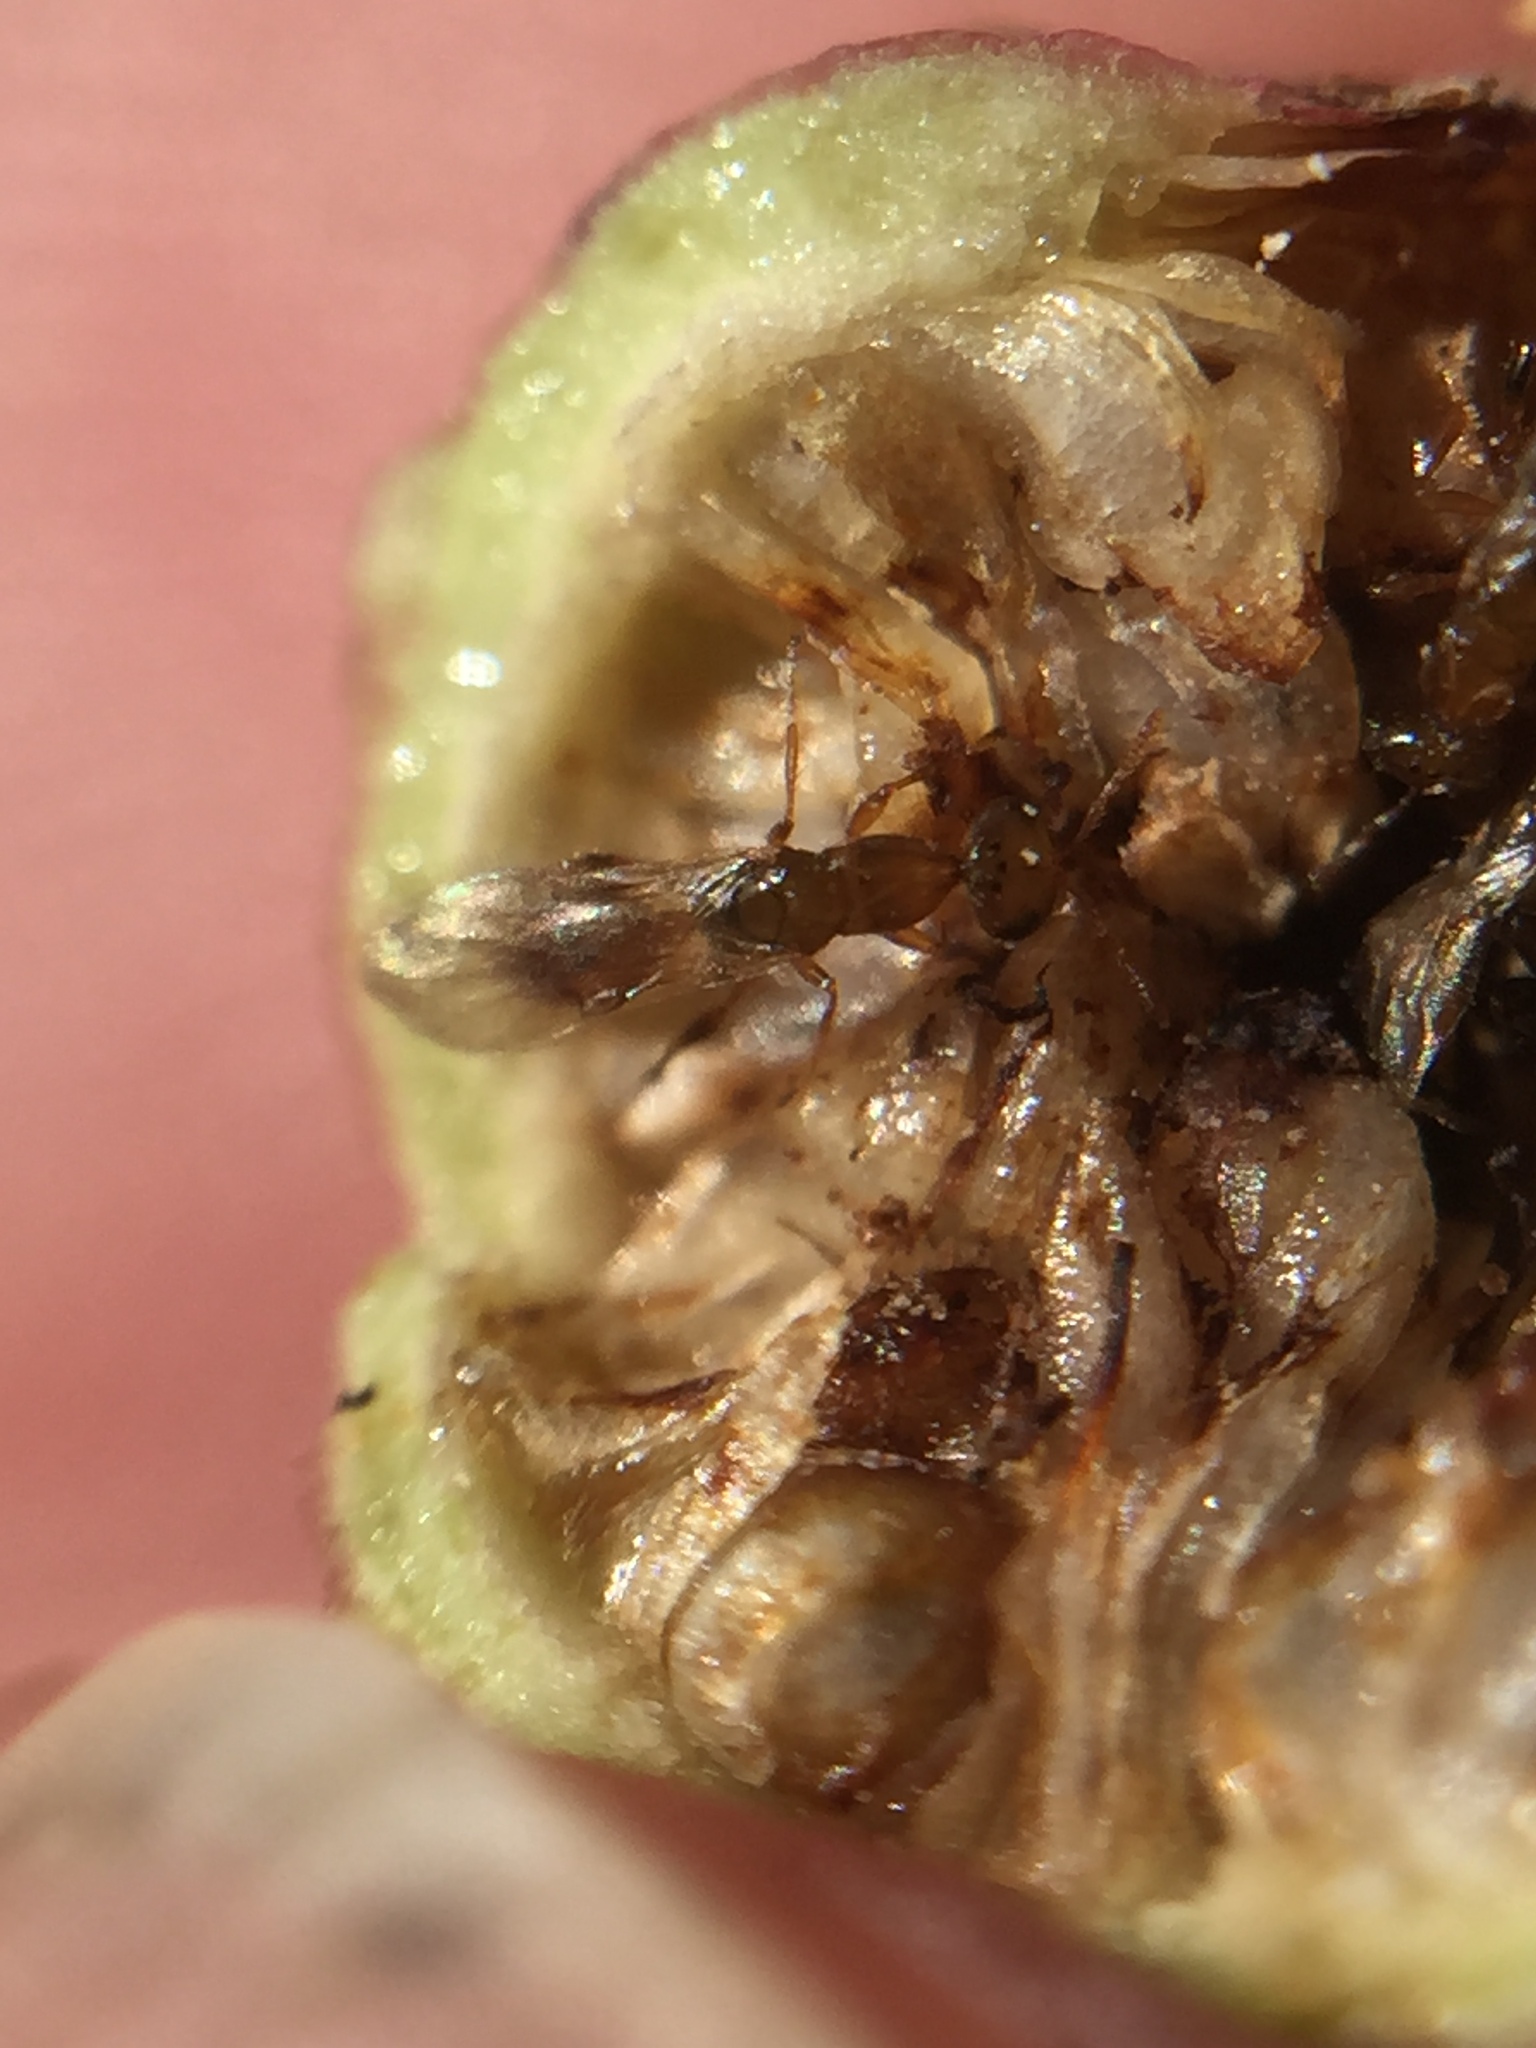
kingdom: Animalia
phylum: Arthropoda
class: Insecta
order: Hymenoptera
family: Agaonidae
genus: Odontofroggatia
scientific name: Odontofroggatia galili
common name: Fig wasp
